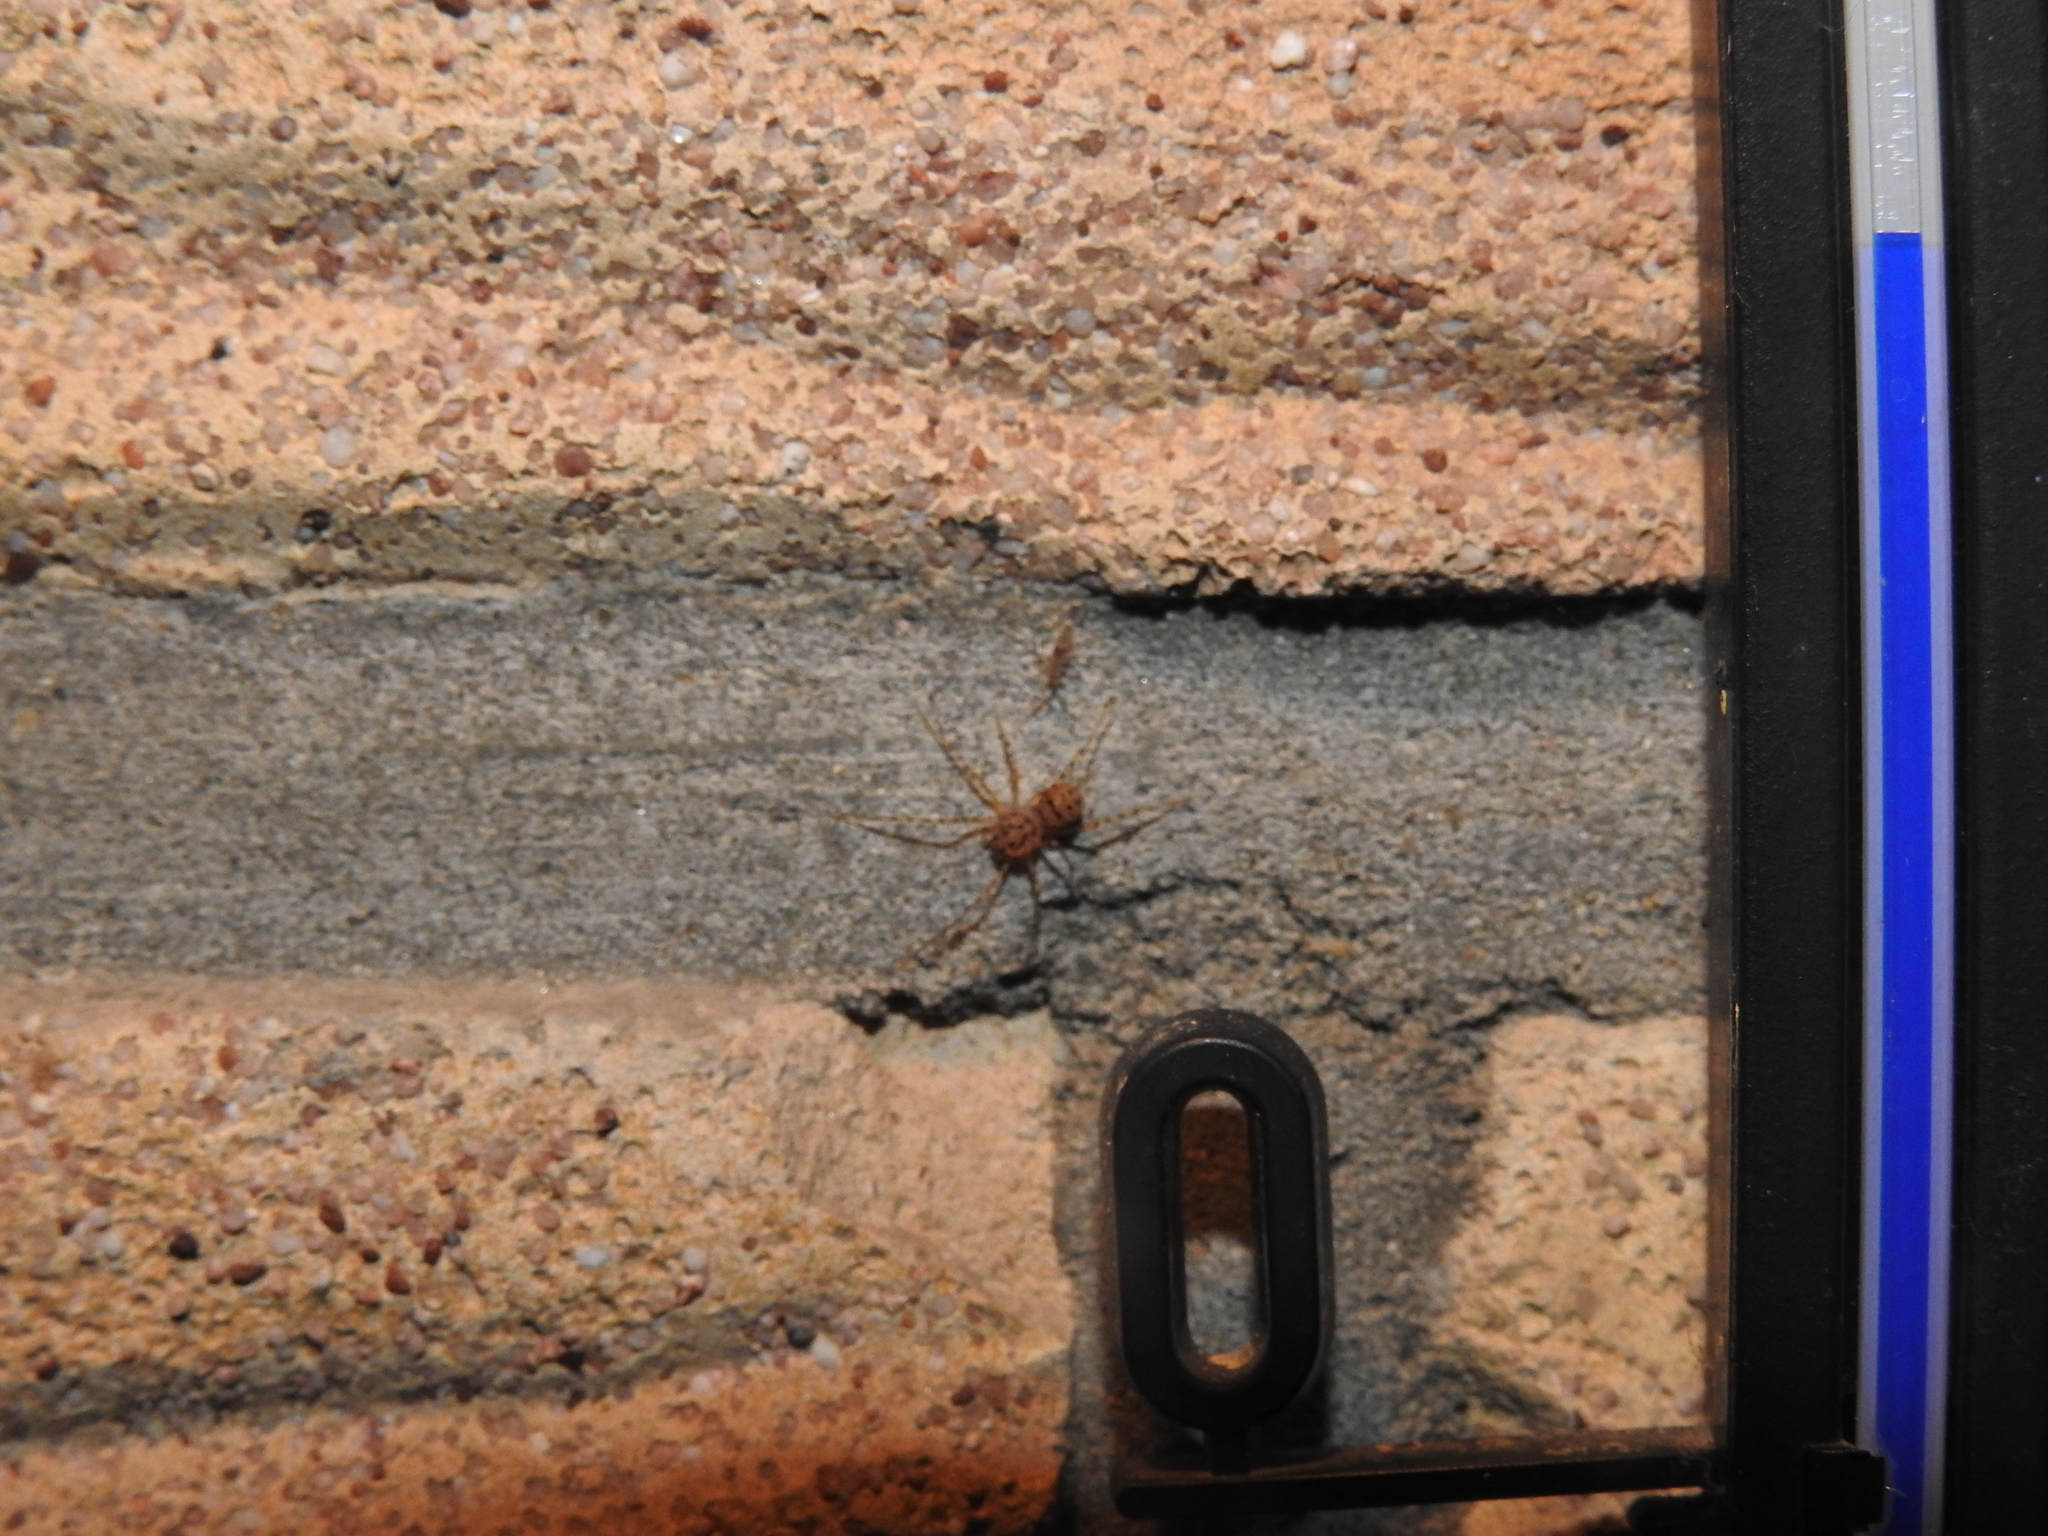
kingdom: Animalia
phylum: Arthropoda
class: Arachnida
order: Araneae
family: Scytodidae
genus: Scytodes
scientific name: Scytodes thoracica
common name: Spitting spider
